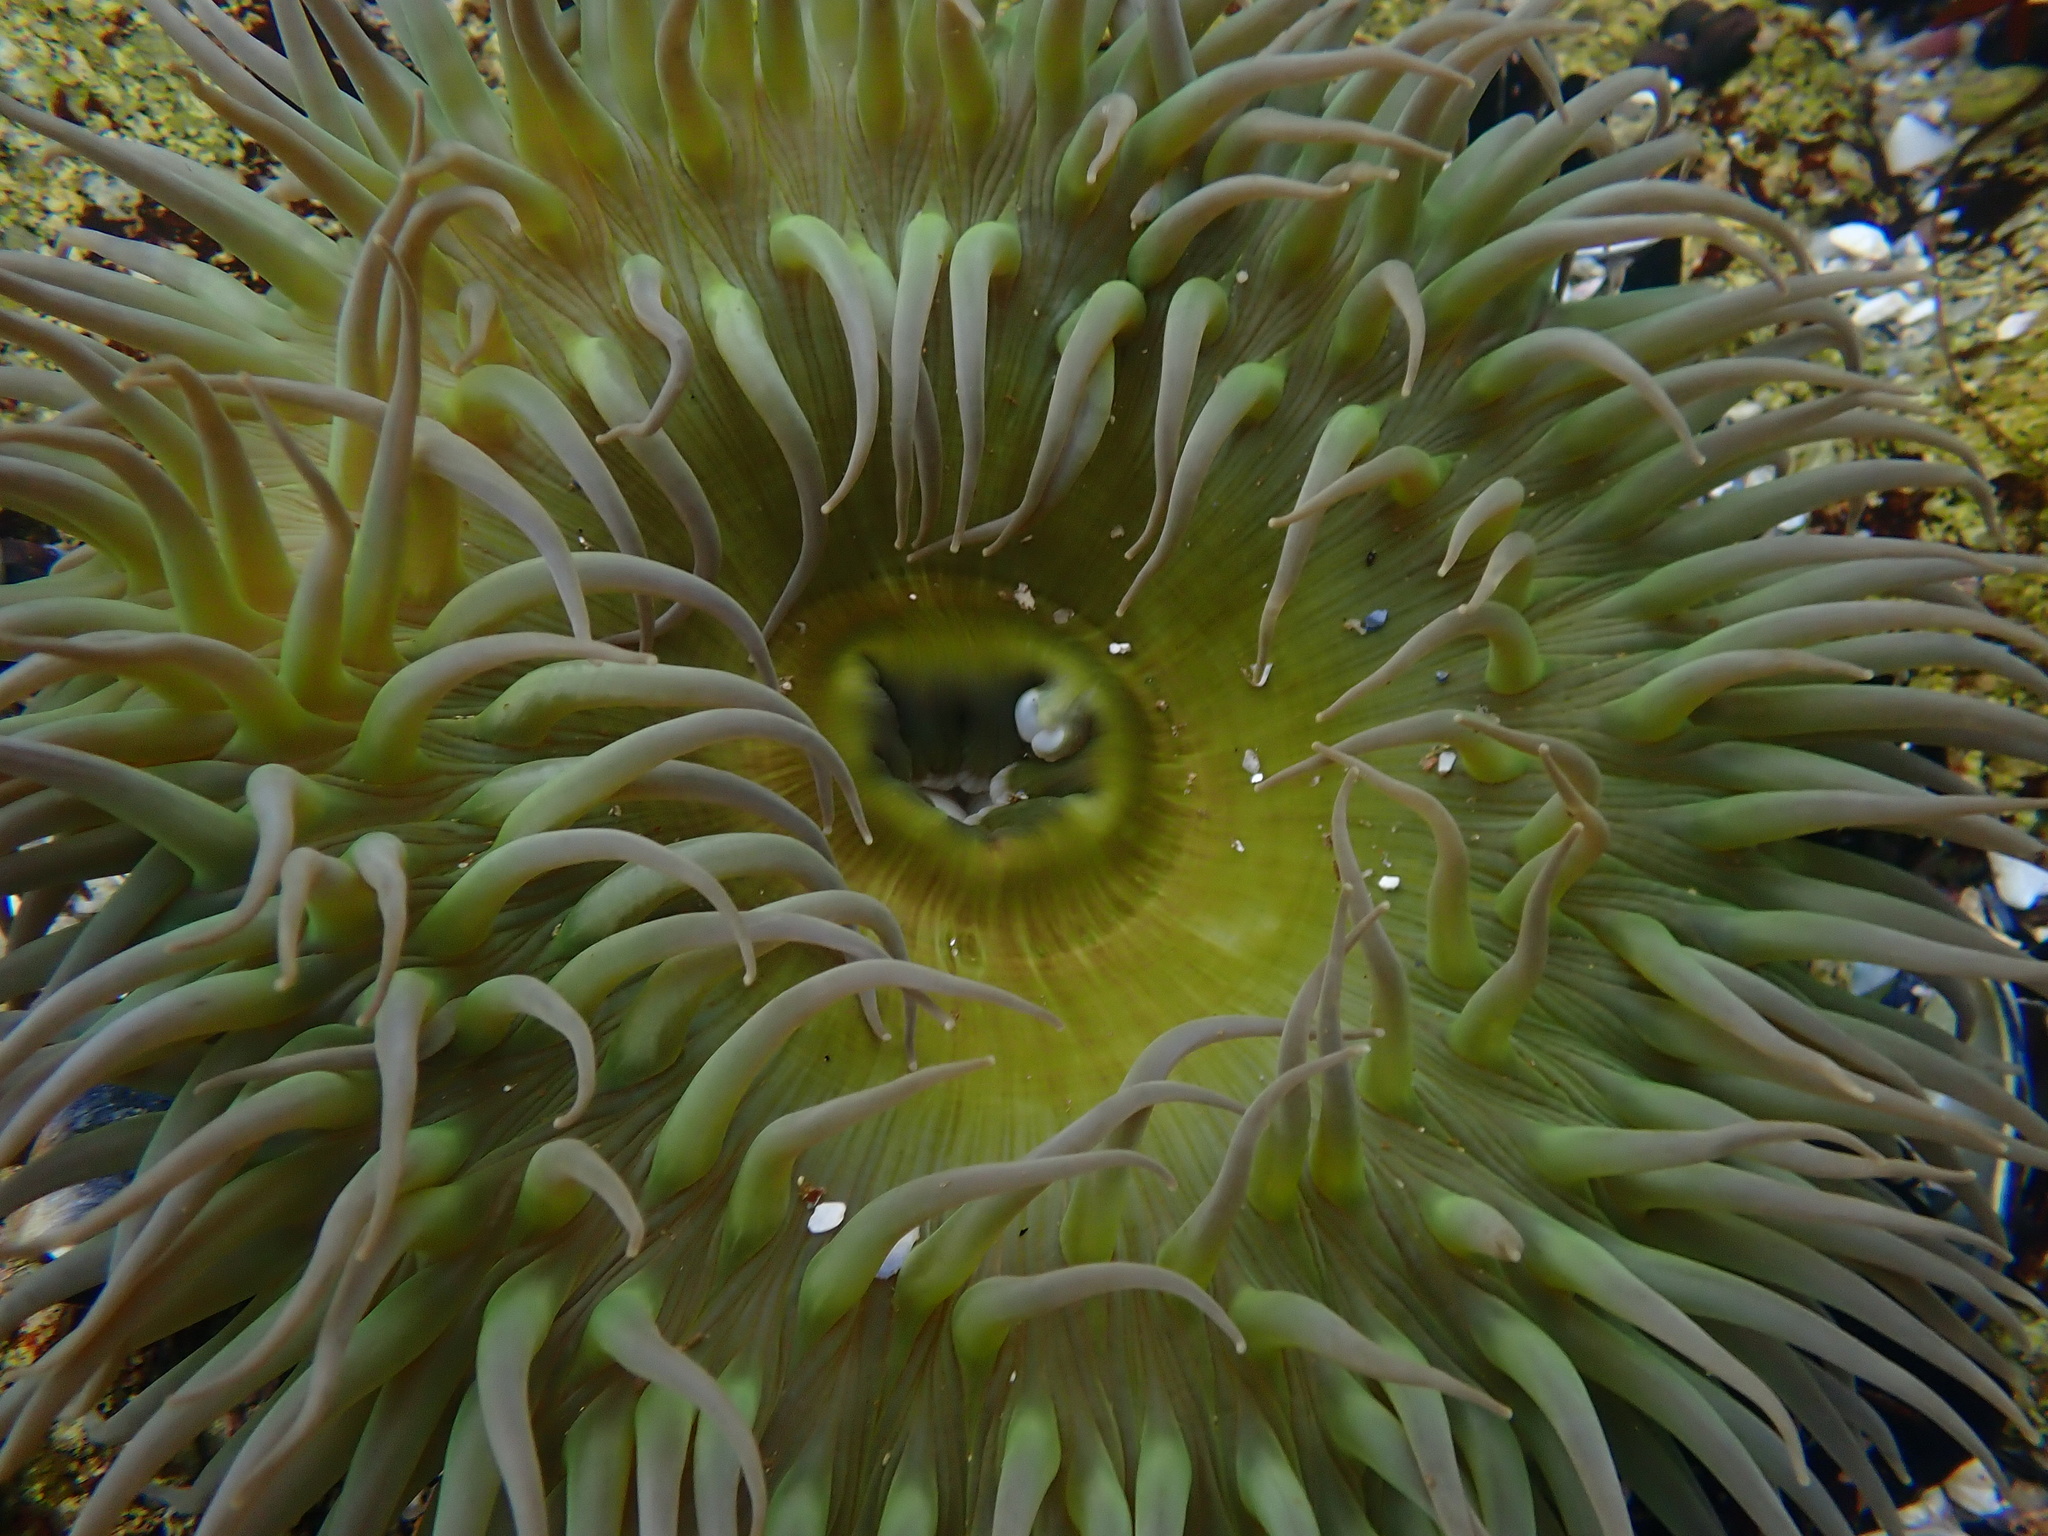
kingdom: Animalia
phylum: Cnidaria
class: Anthozoa
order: Actiniaria
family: Actiniidae
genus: Anthopleura
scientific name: Anthopleura xanthogrammica
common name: Giant green anemone
